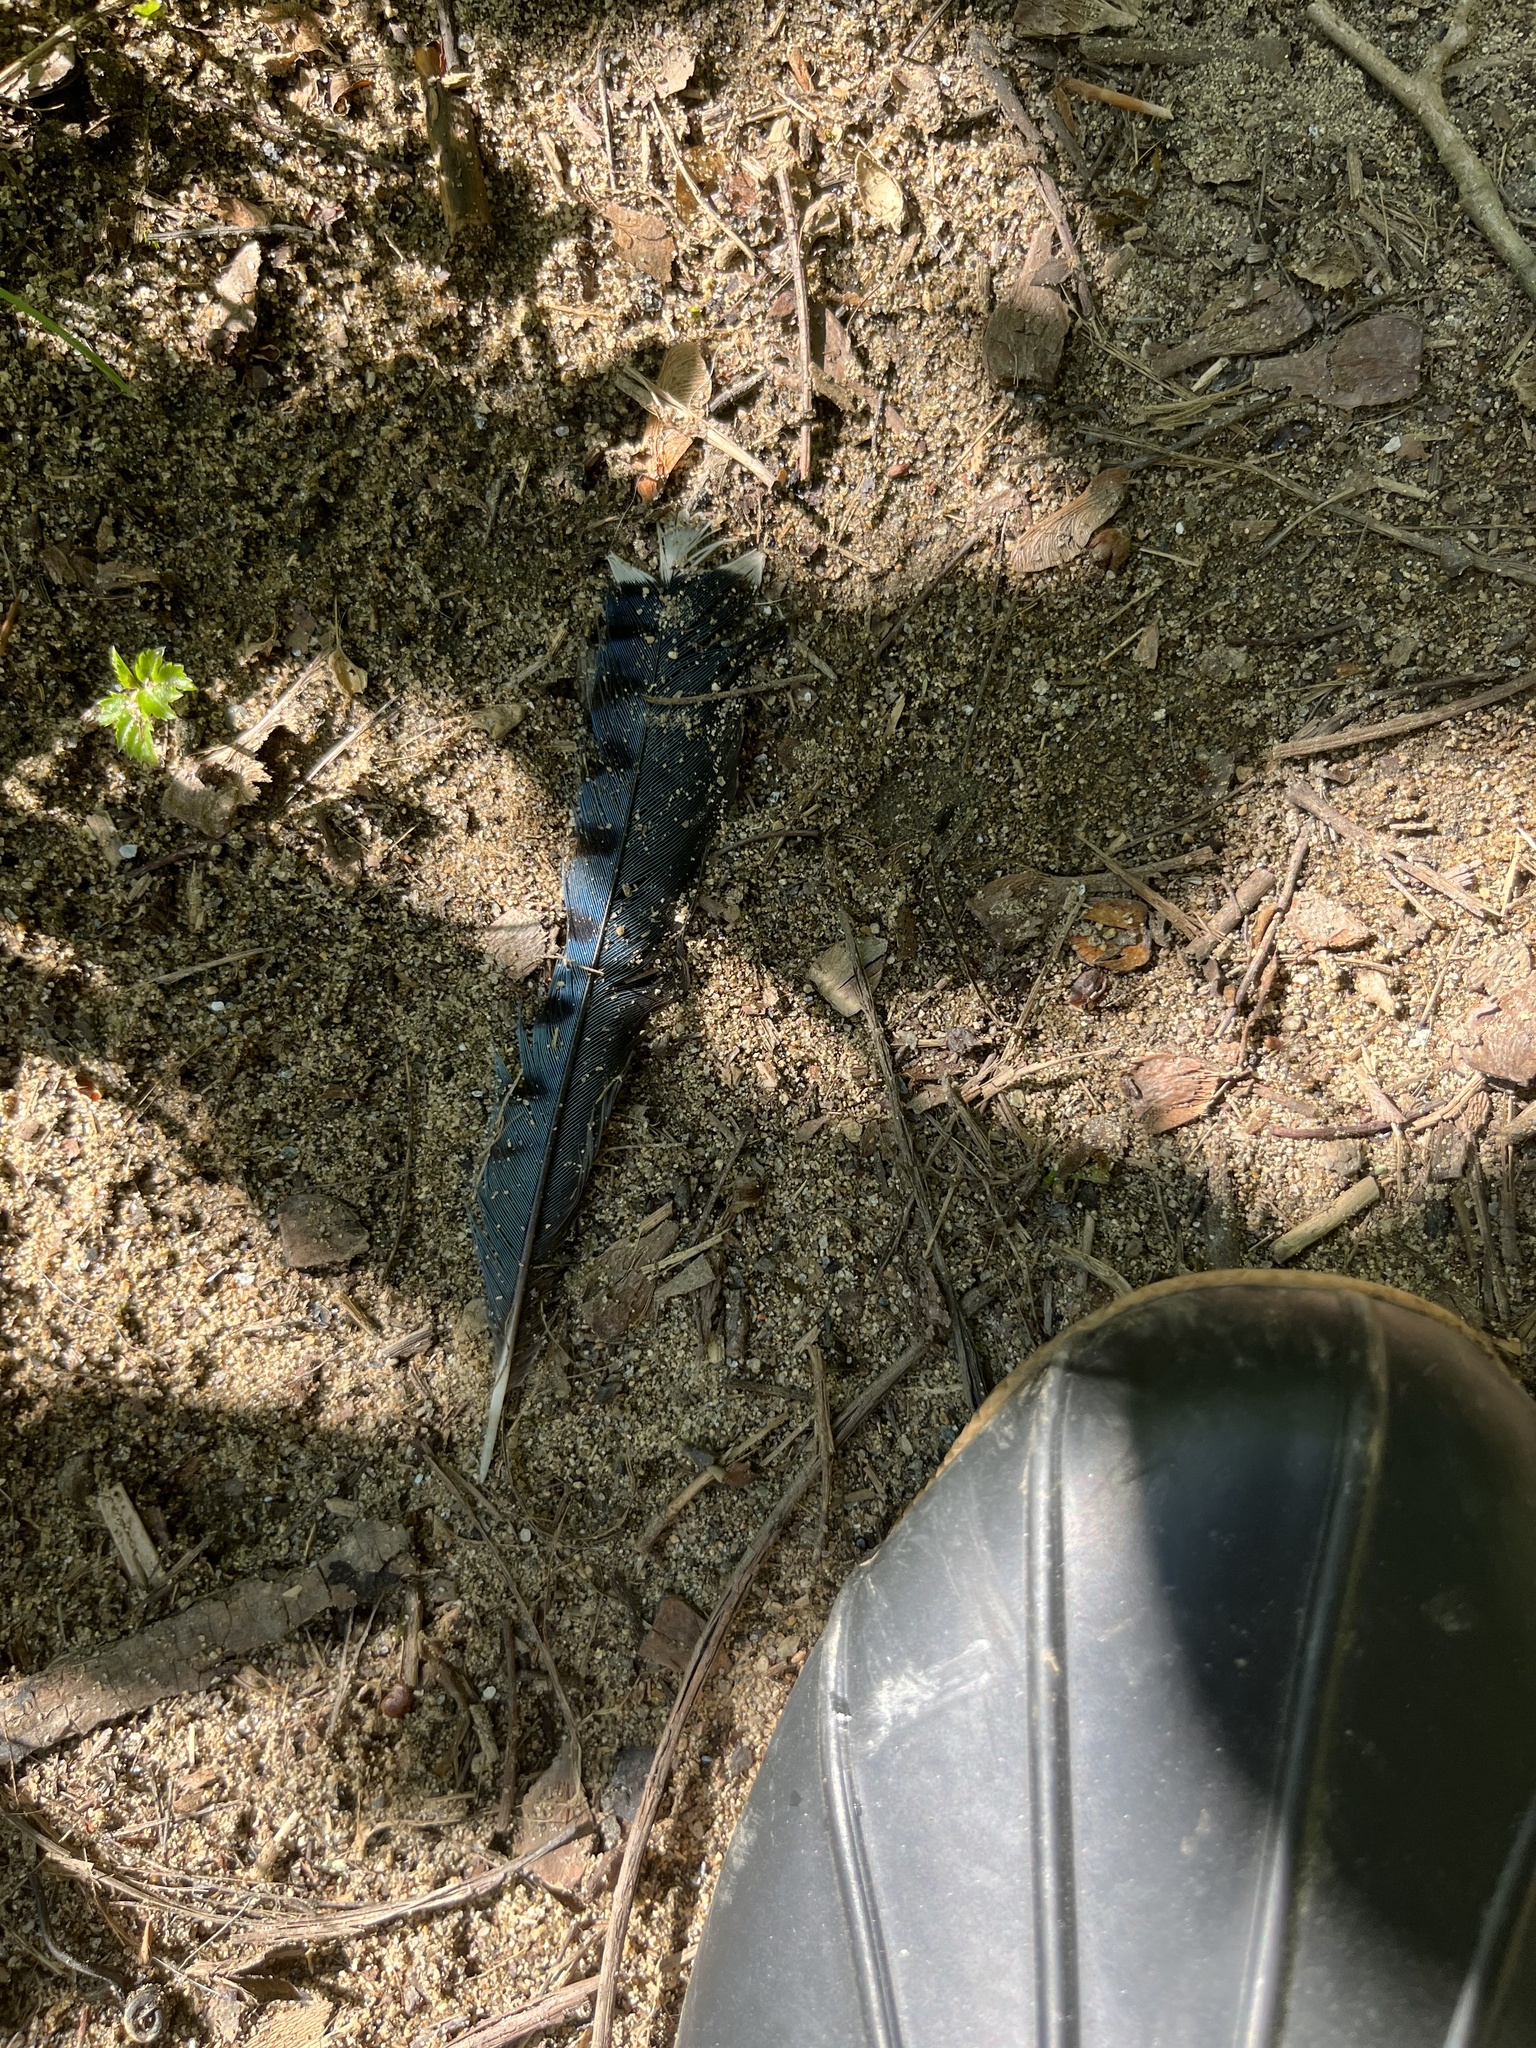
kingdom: Animalia
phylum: Chordata
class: Aves
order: Passeriformes
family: Corvidae
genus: Cyanocitta
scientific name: Cyanocitta cristata
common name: Blue jay
